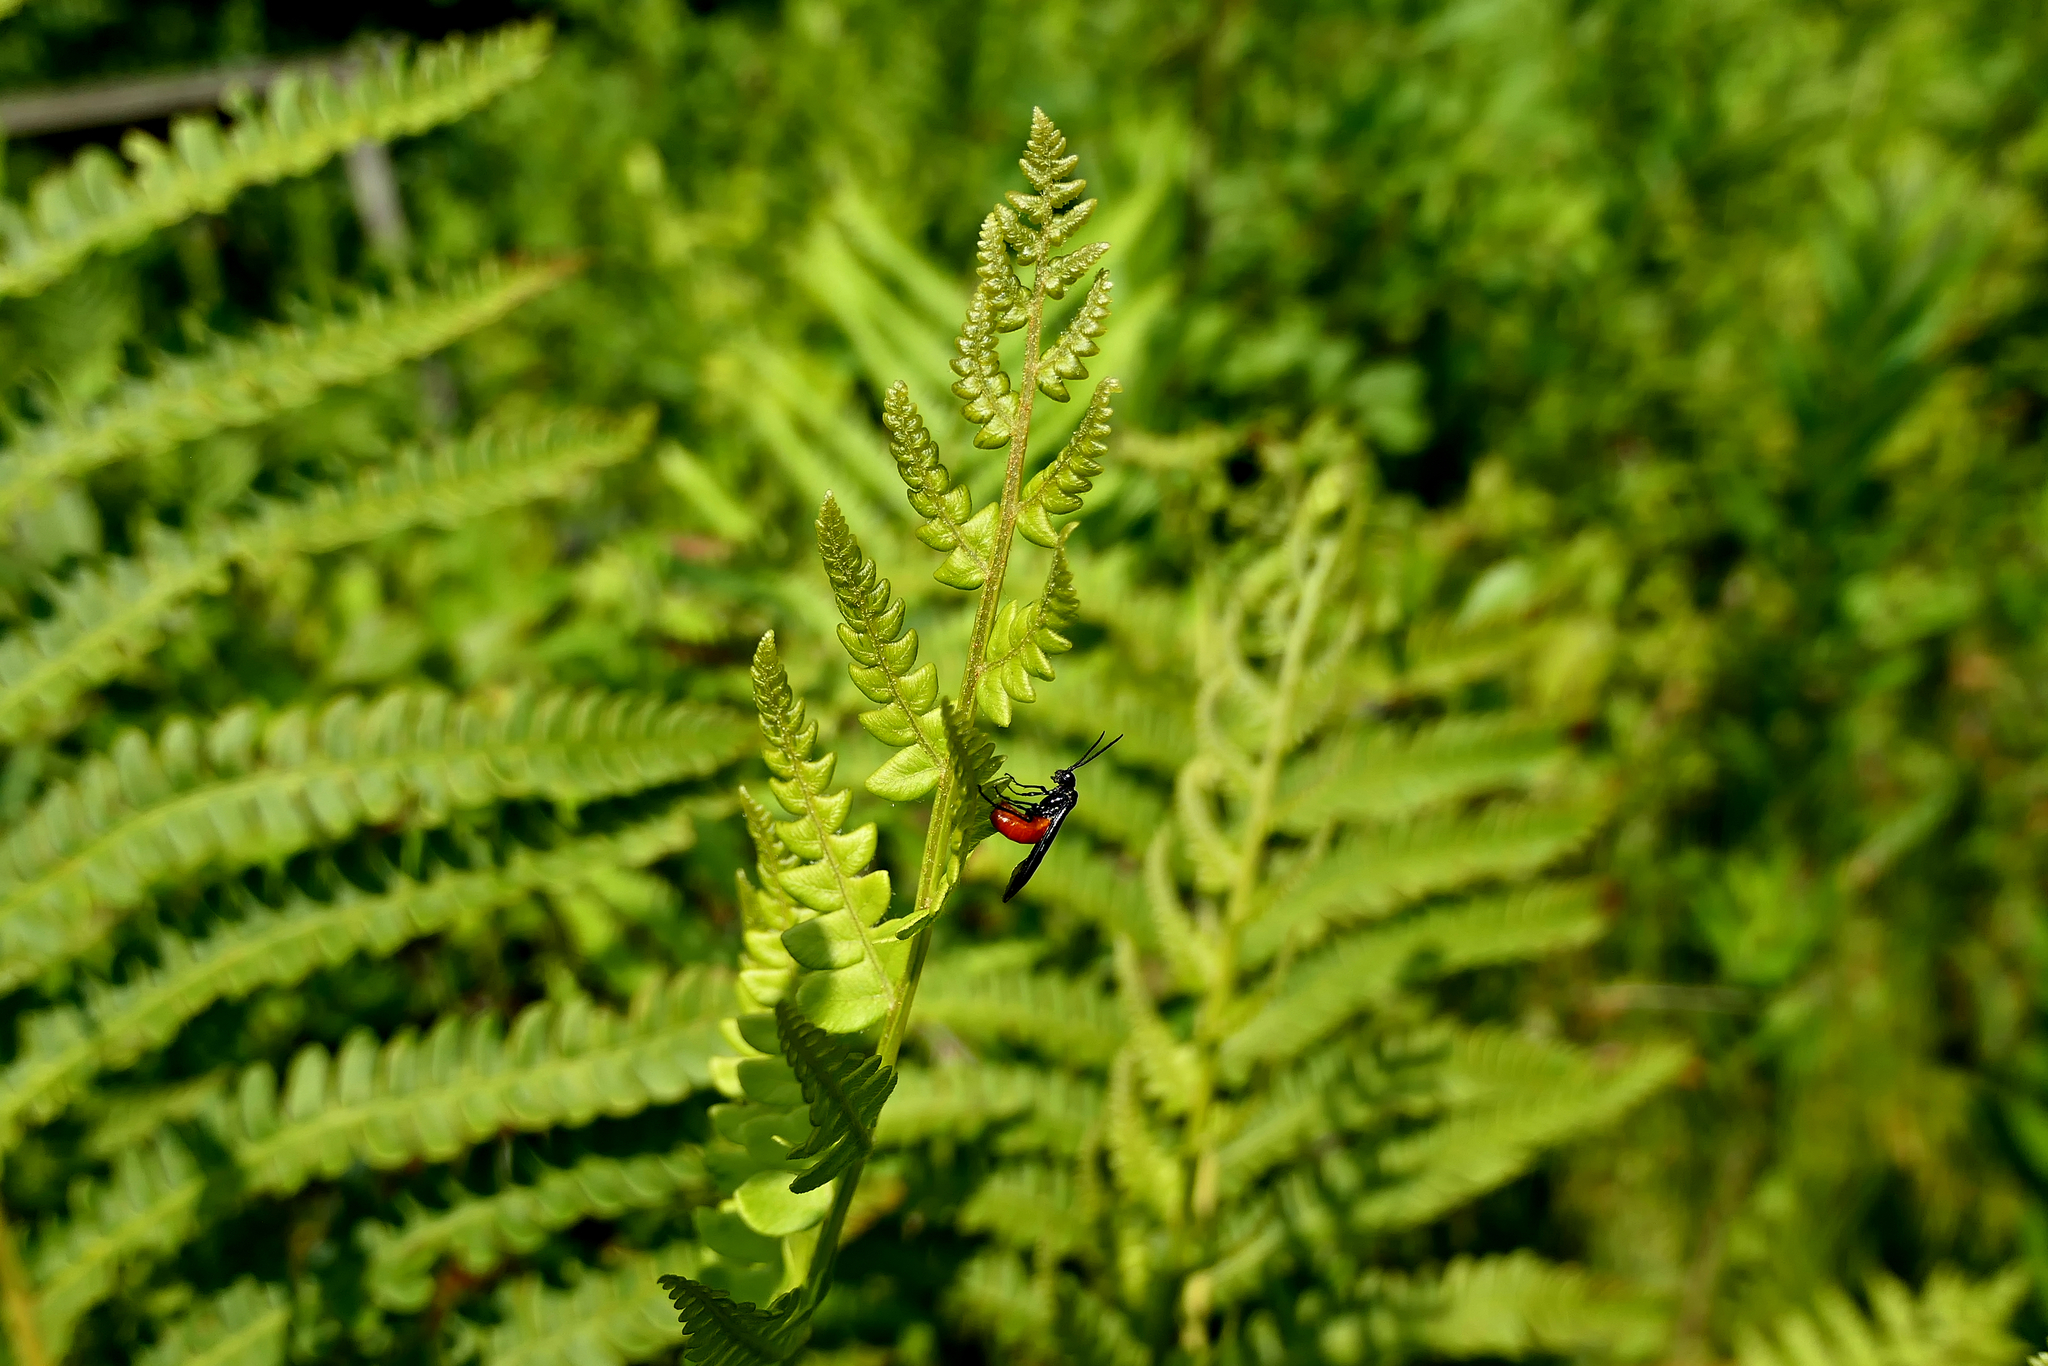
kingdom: Animalia
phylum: Arthropoda
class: Insecta
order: Hymenoptera
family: Tenthredinidae
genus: Strongylogaster
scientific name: Strongylogaster tacita
